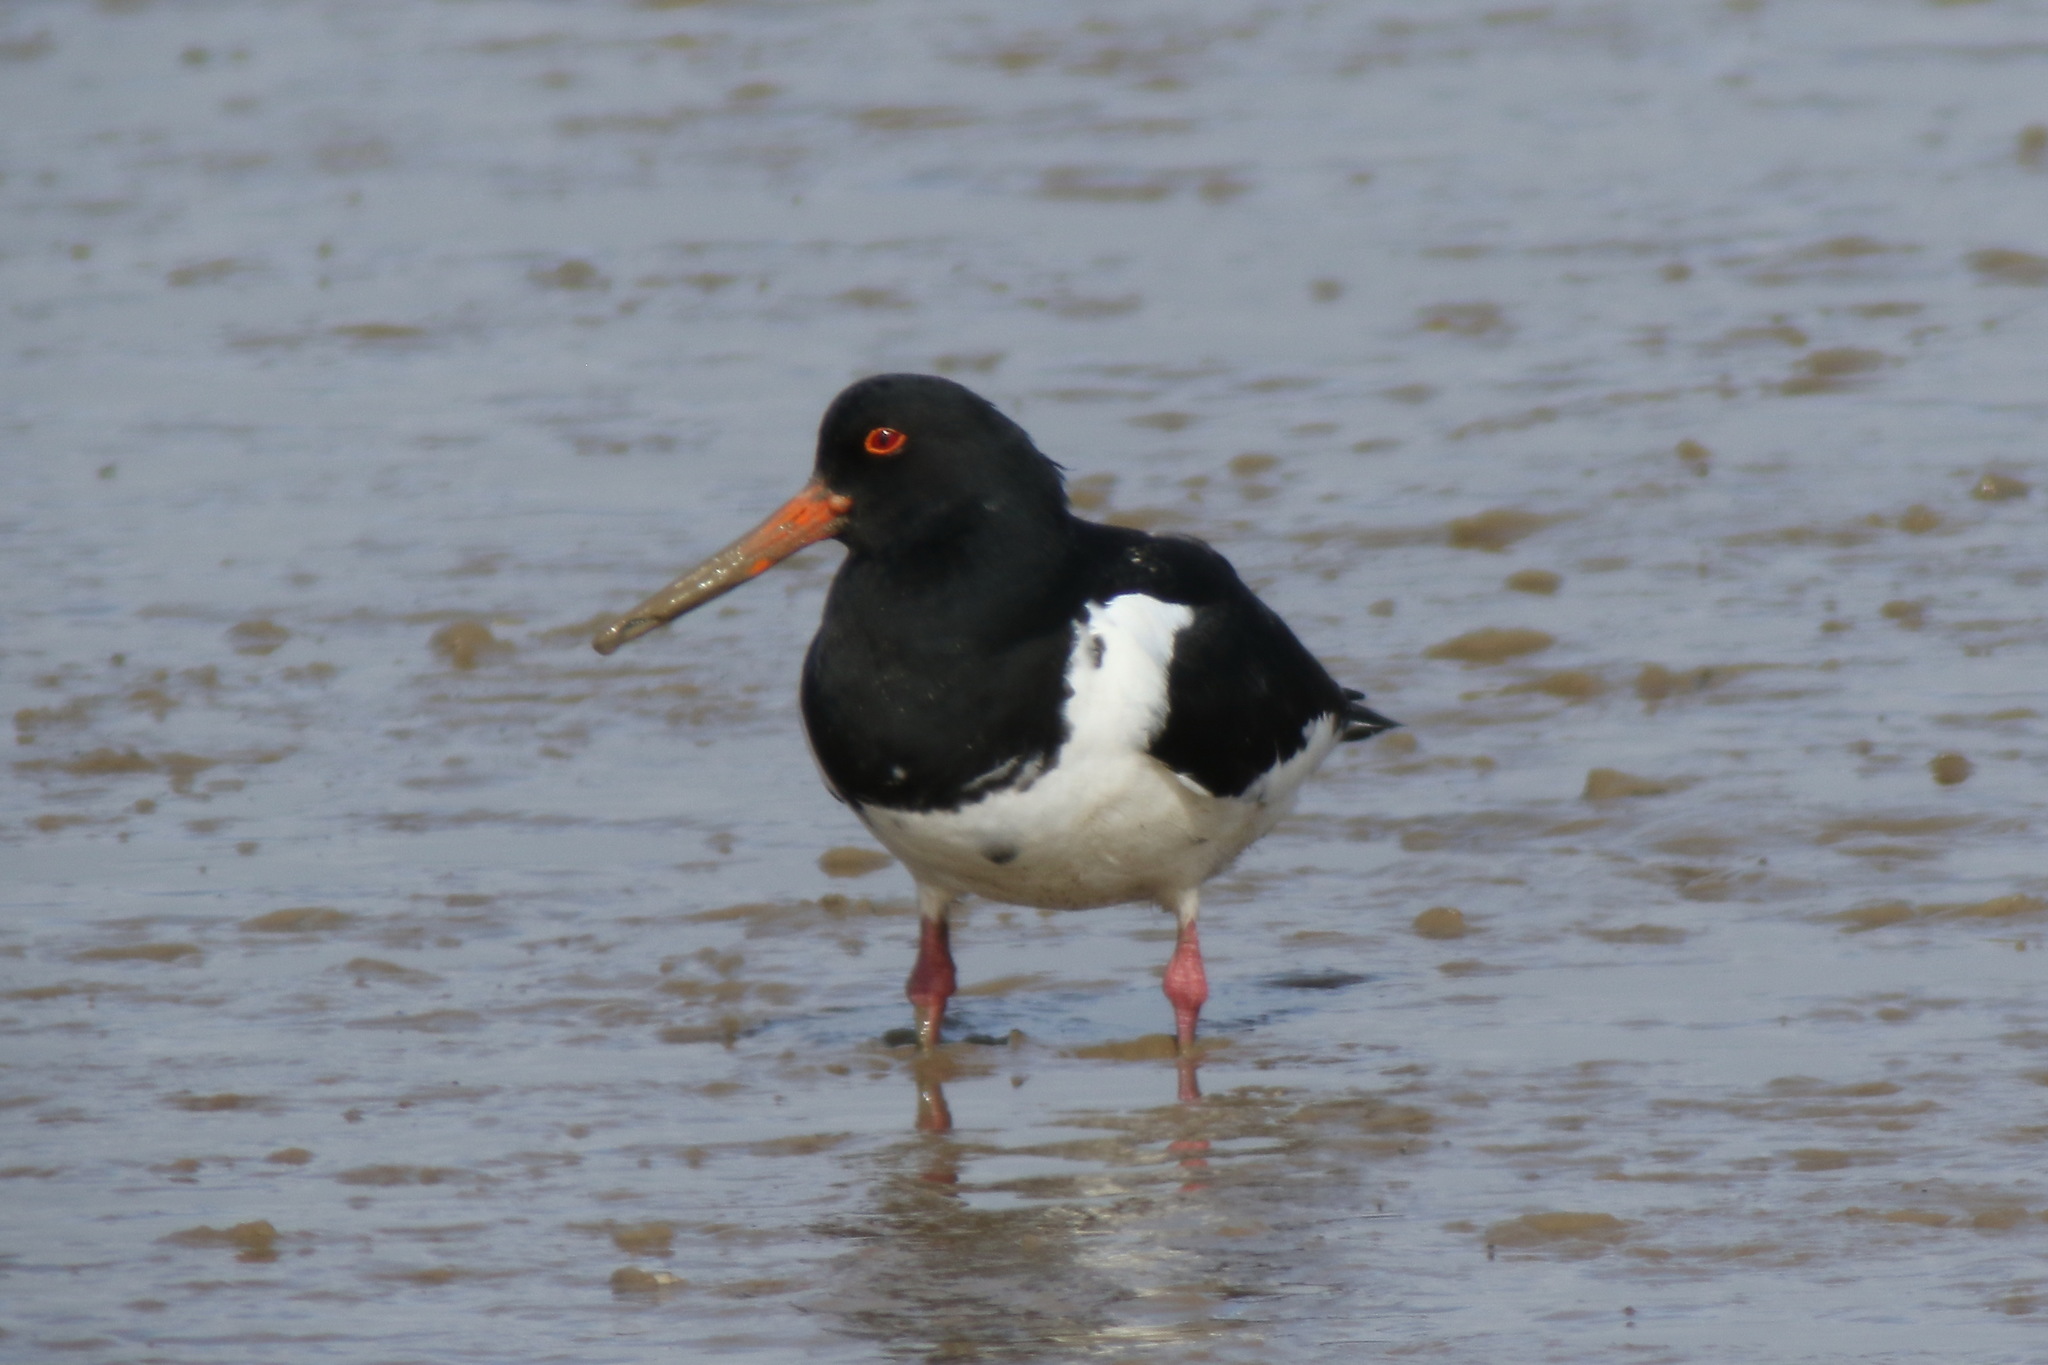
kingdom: Animalia
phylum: Chordata
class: Aves
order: Charadriiformes
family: Haematopodidae
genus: Haematopus
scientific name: Haematopus ostralegus
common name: Eurasian oystercatcher
